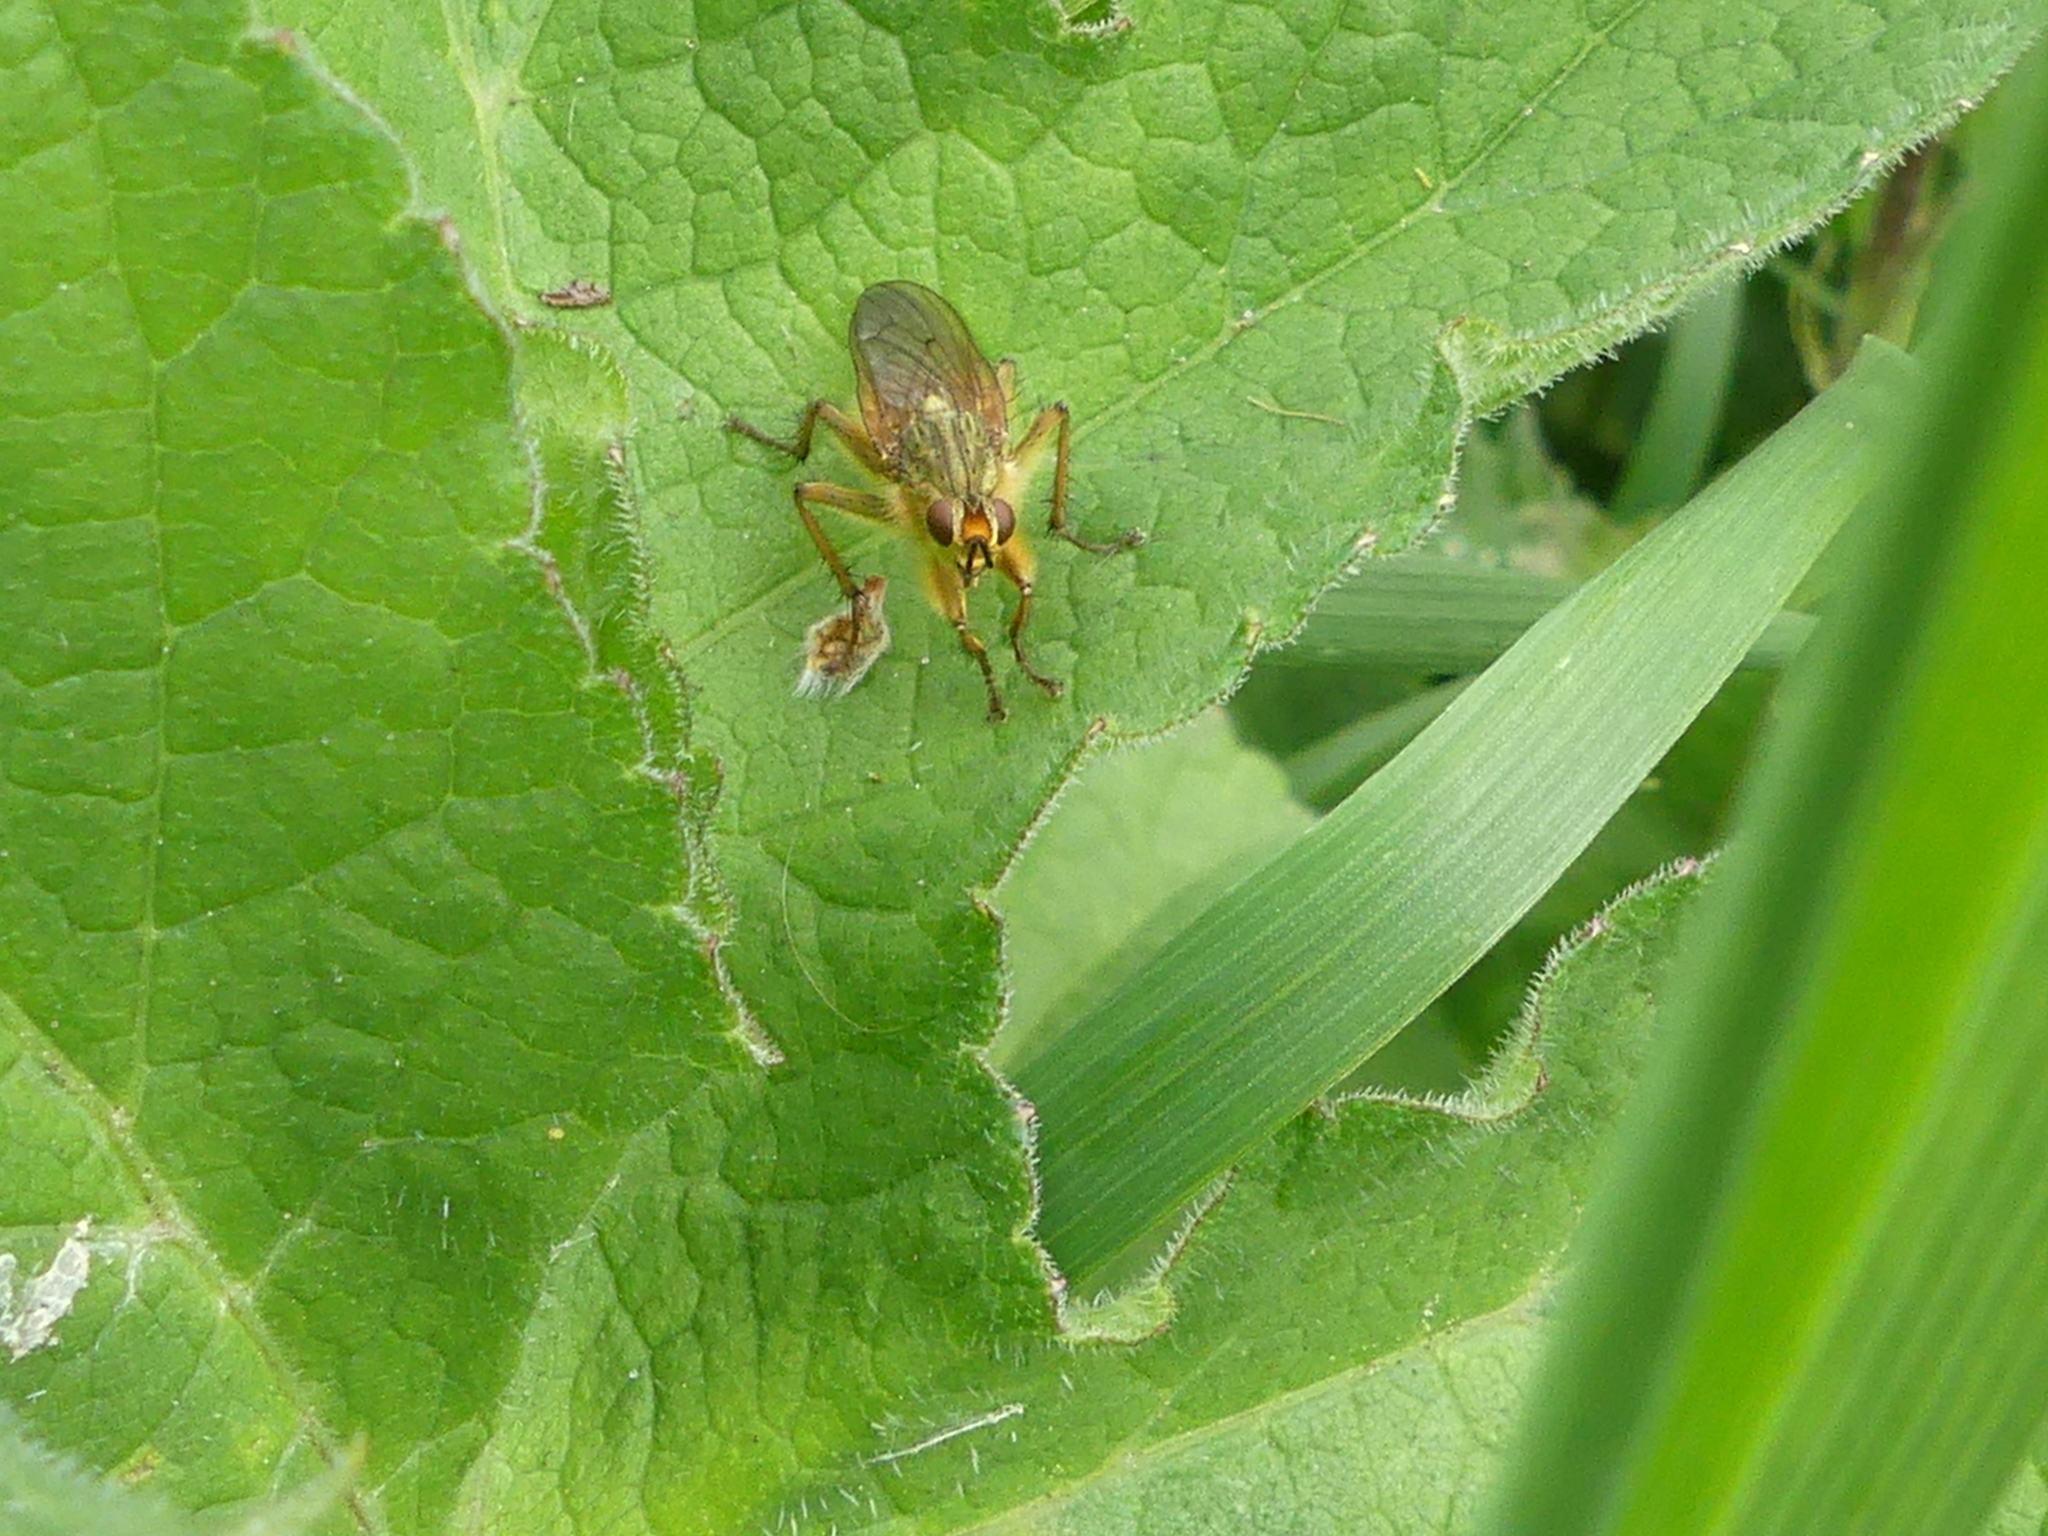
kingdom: Animalia
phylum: Arthropoda
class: Insecta
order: Diptera
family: Scathophagidae
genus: Scathophaga
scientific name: Scathophaga stercoraria
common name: Yellow dung fly
